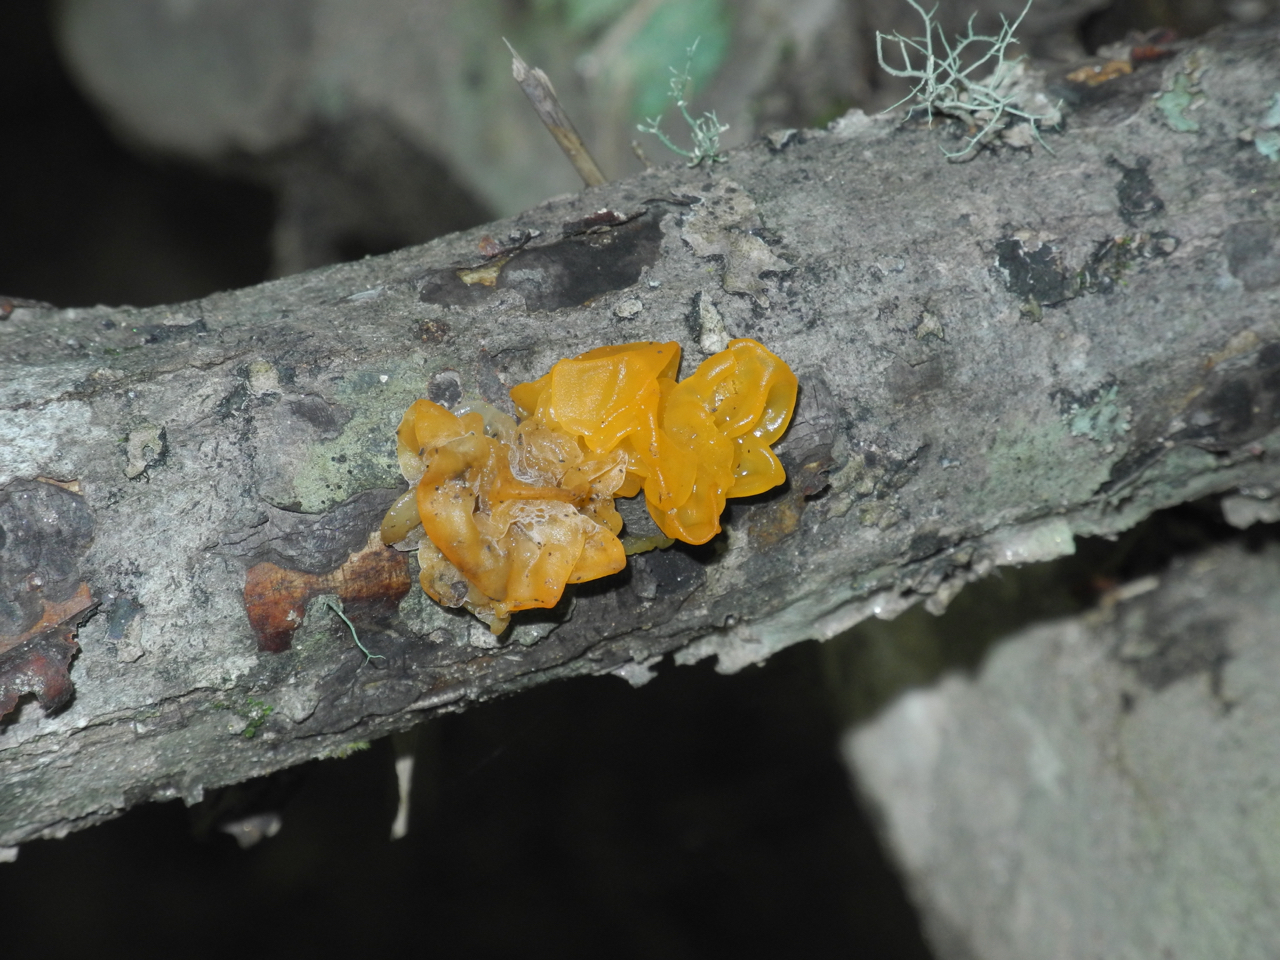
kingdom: Fungi
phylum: Basidiomycota
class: Tremellomycetes
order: Tremellales
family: Tremellaceae
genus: Tremella
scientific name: Tremella mesenterica
